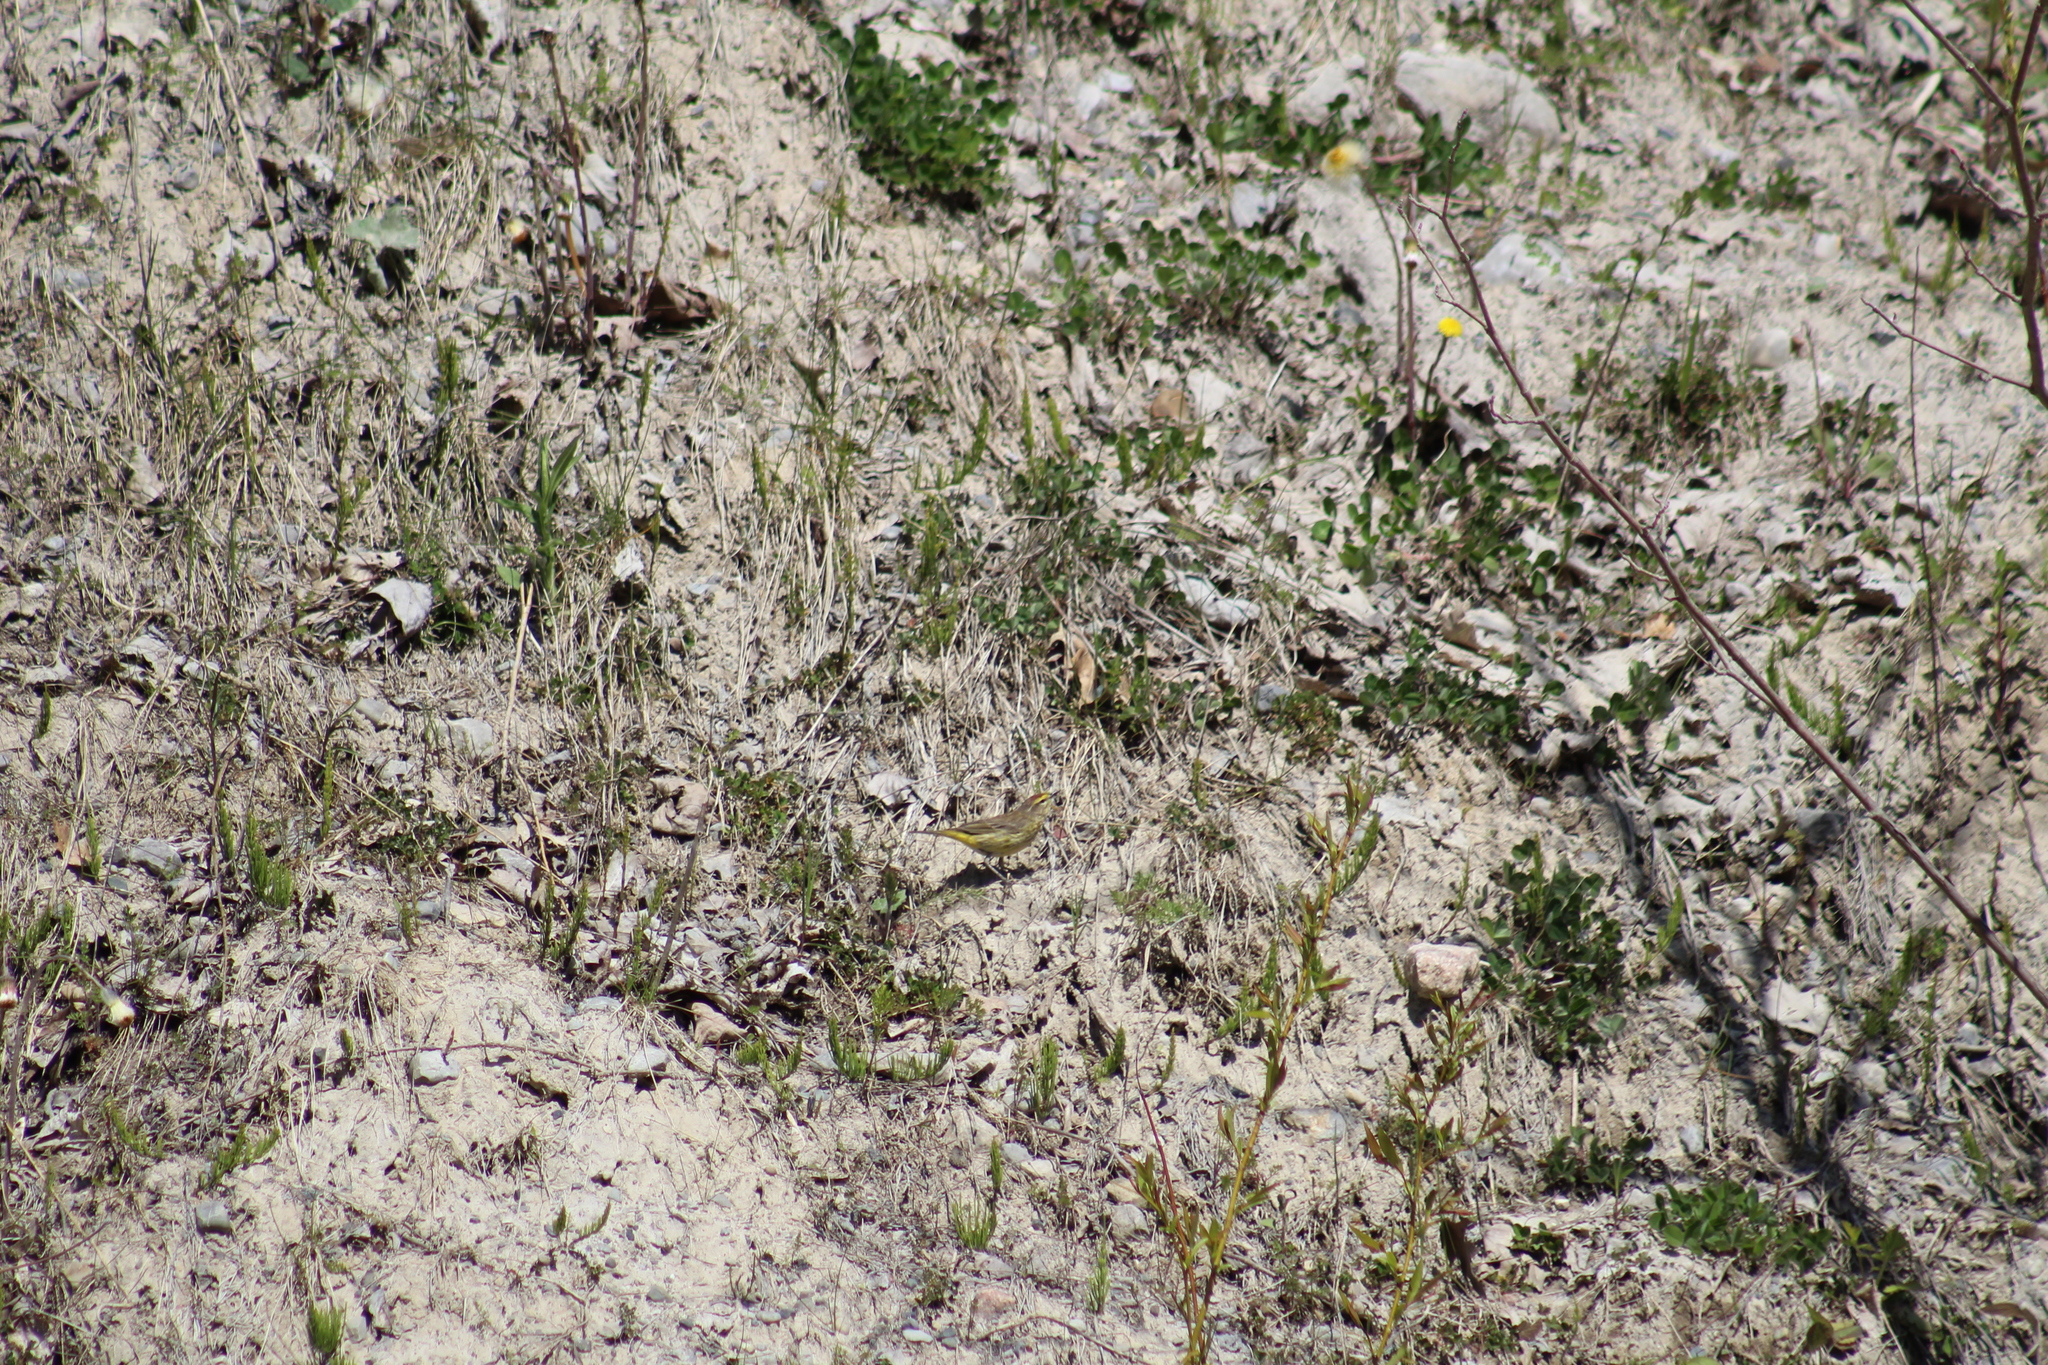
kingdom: Animalia
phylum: Chordata
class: Aves
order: Passeriformes
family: Parulidae
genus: Setophaga
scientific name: Setophaga palmarum
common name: Palm warbler
